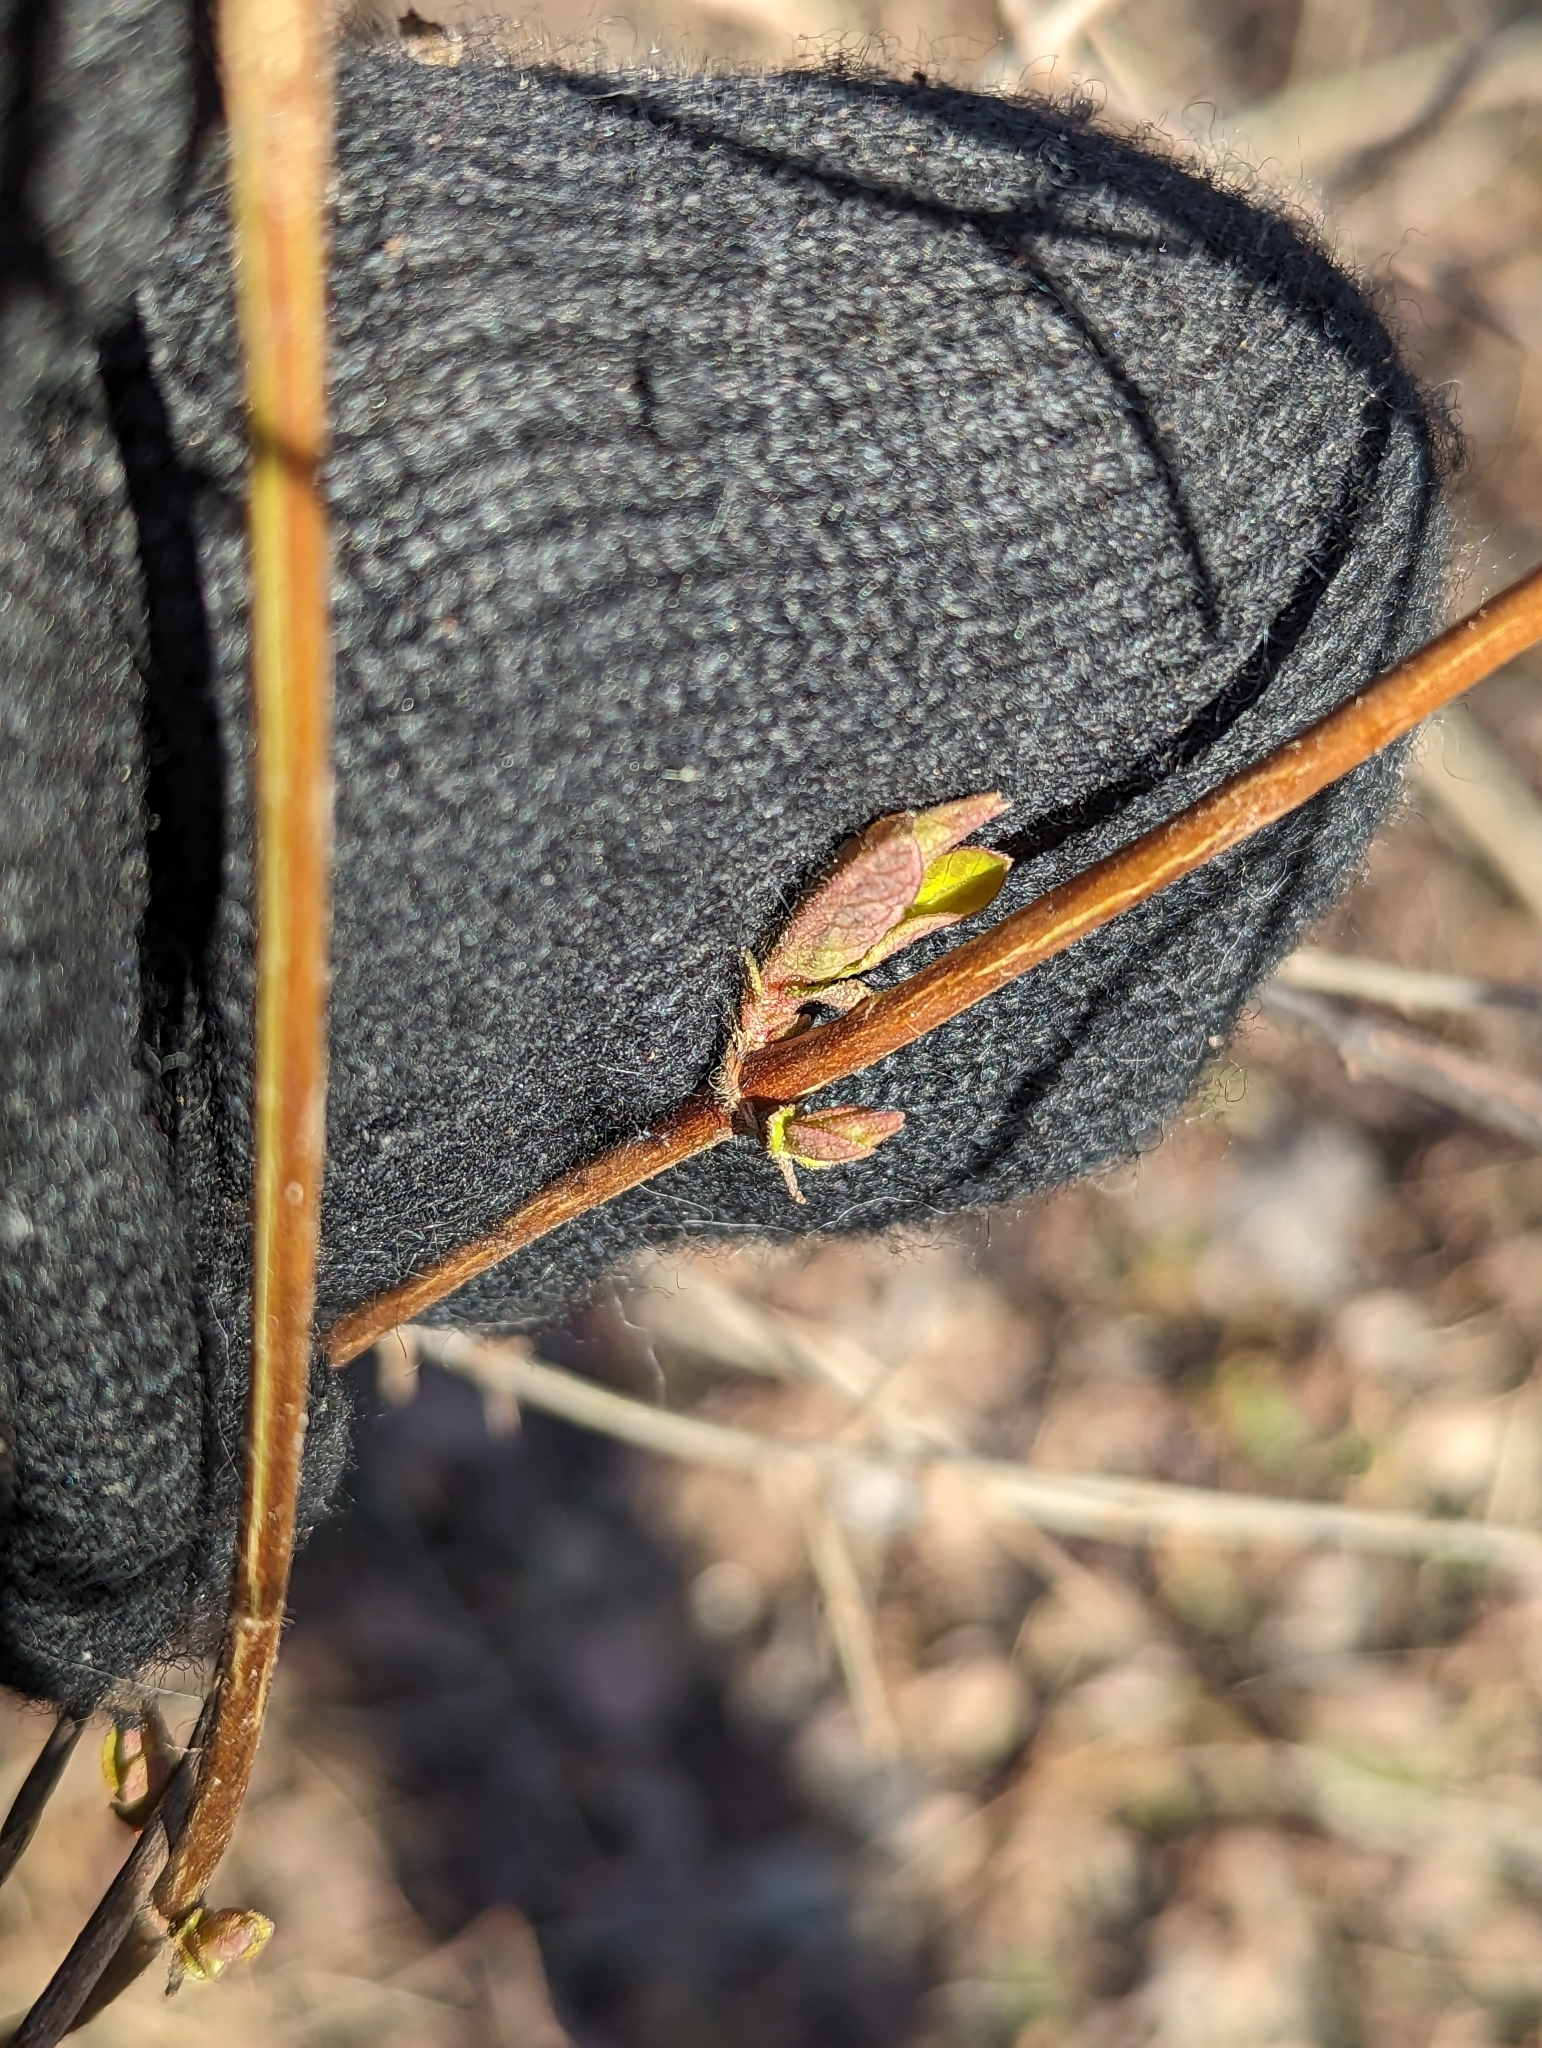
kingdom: Plantae
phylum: Tracheophyta
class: Magnoliopsida
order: Dipsacales
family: Caprifoliaceae
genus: Lonicera
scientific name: Lonicera japonica
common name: Japanese honeysuckle
